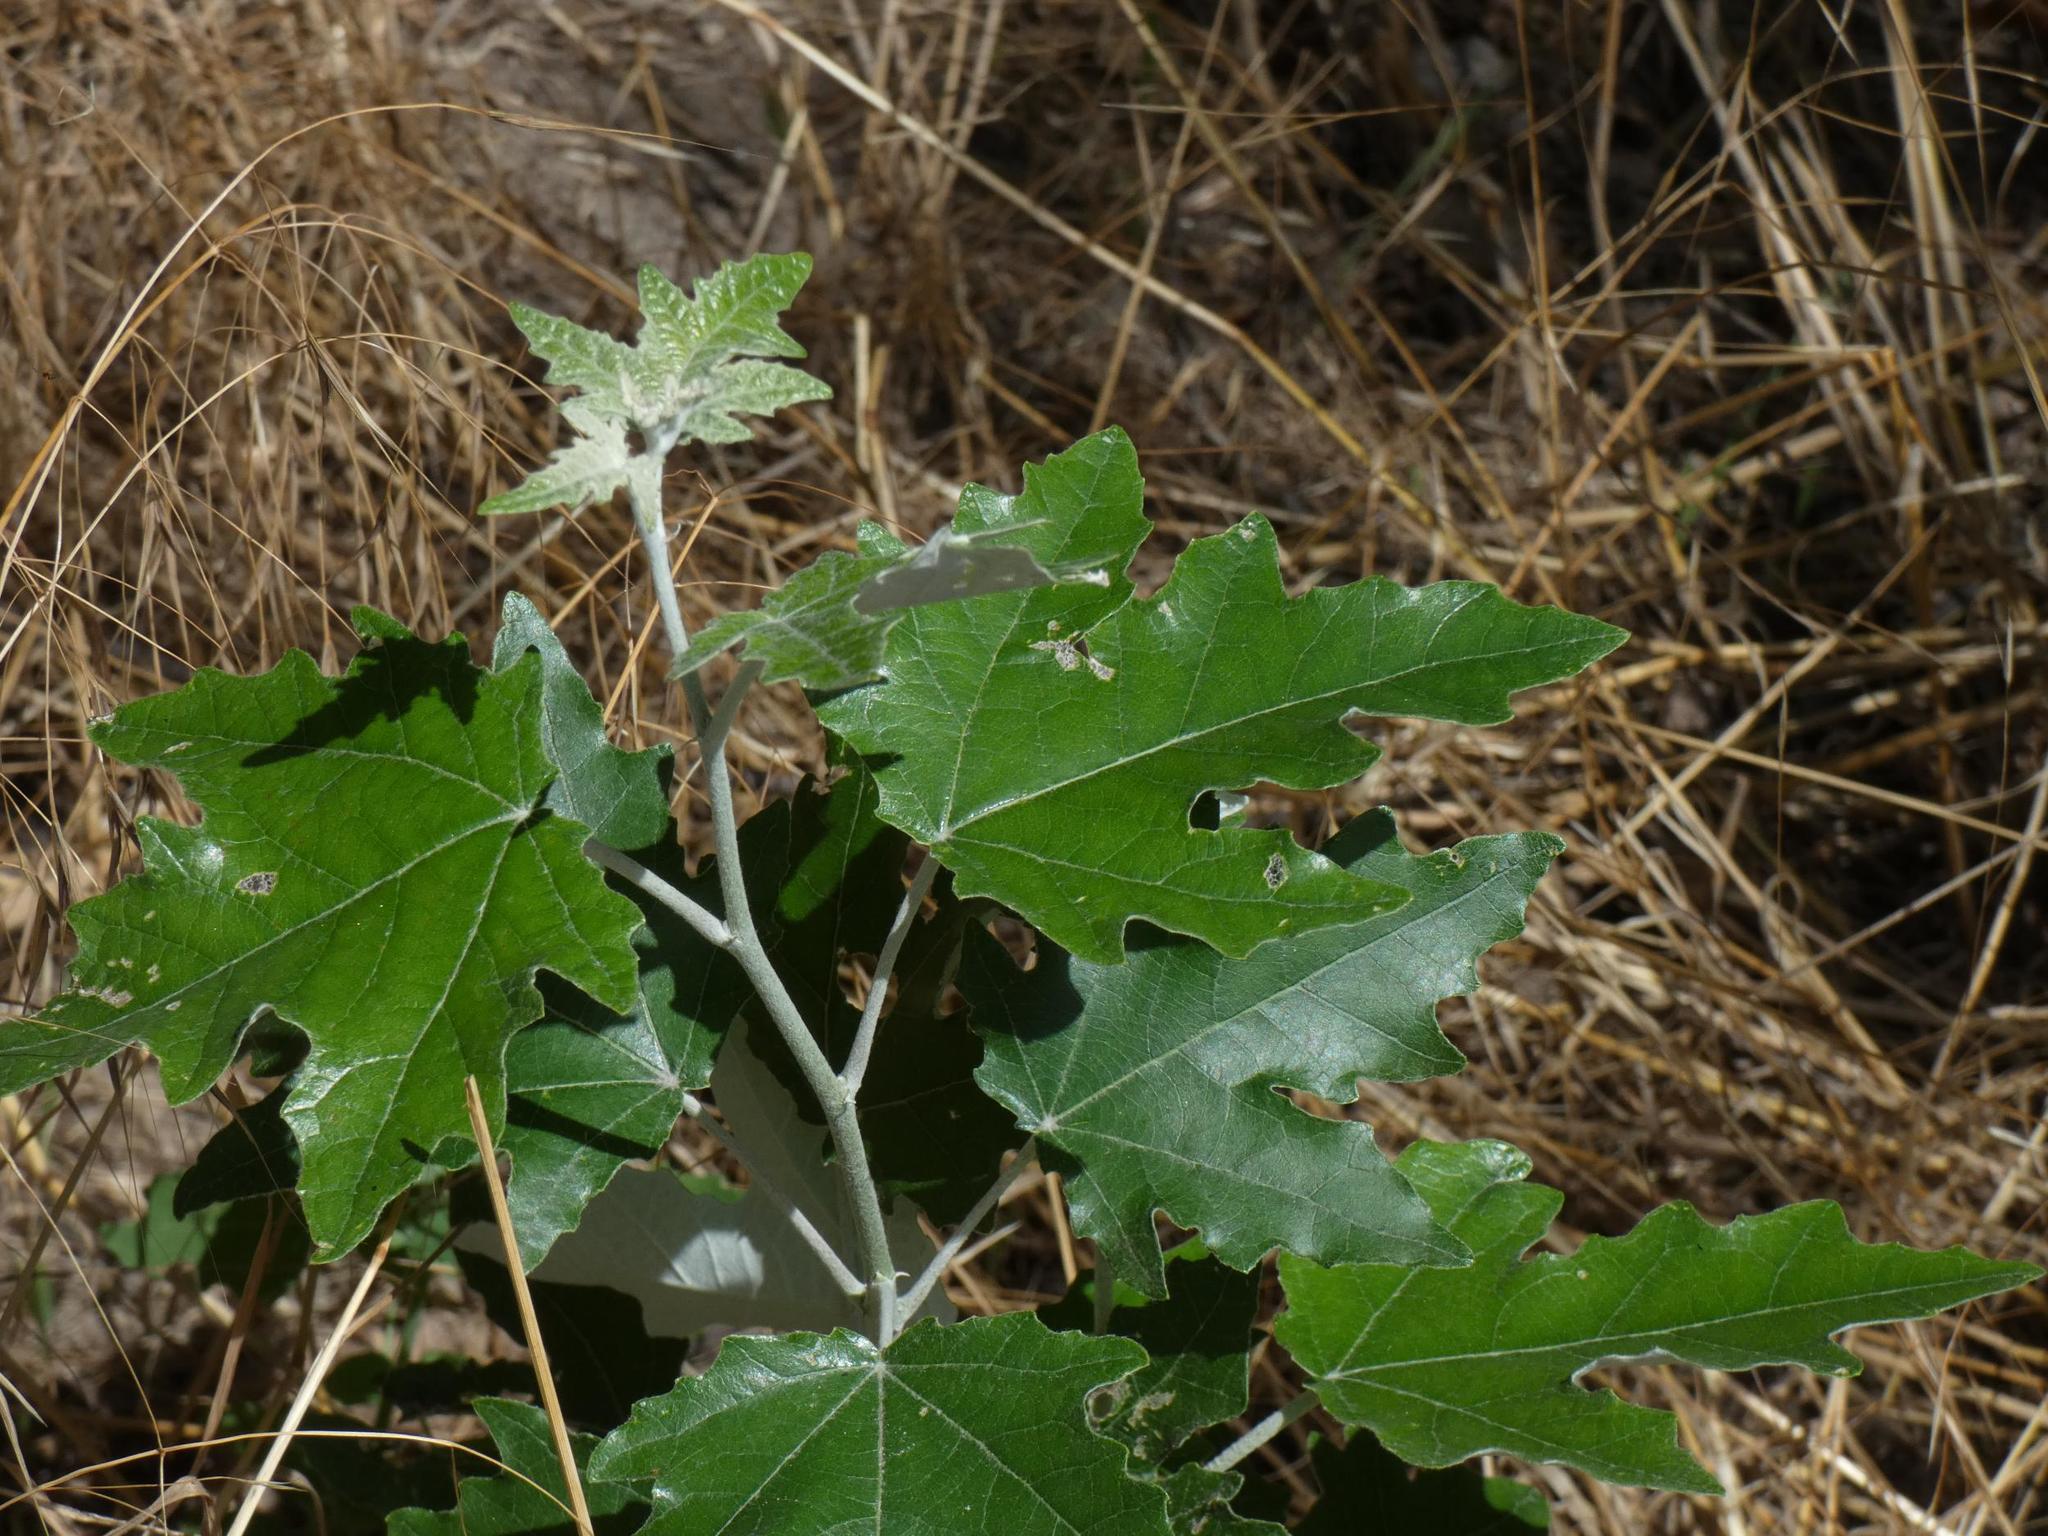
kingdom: Plantae
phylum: Tracheophyta
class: Magnoliopsida
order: Malpighiales
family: Salicaceae
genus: Populus
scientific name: Populus alba
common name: White poplar
